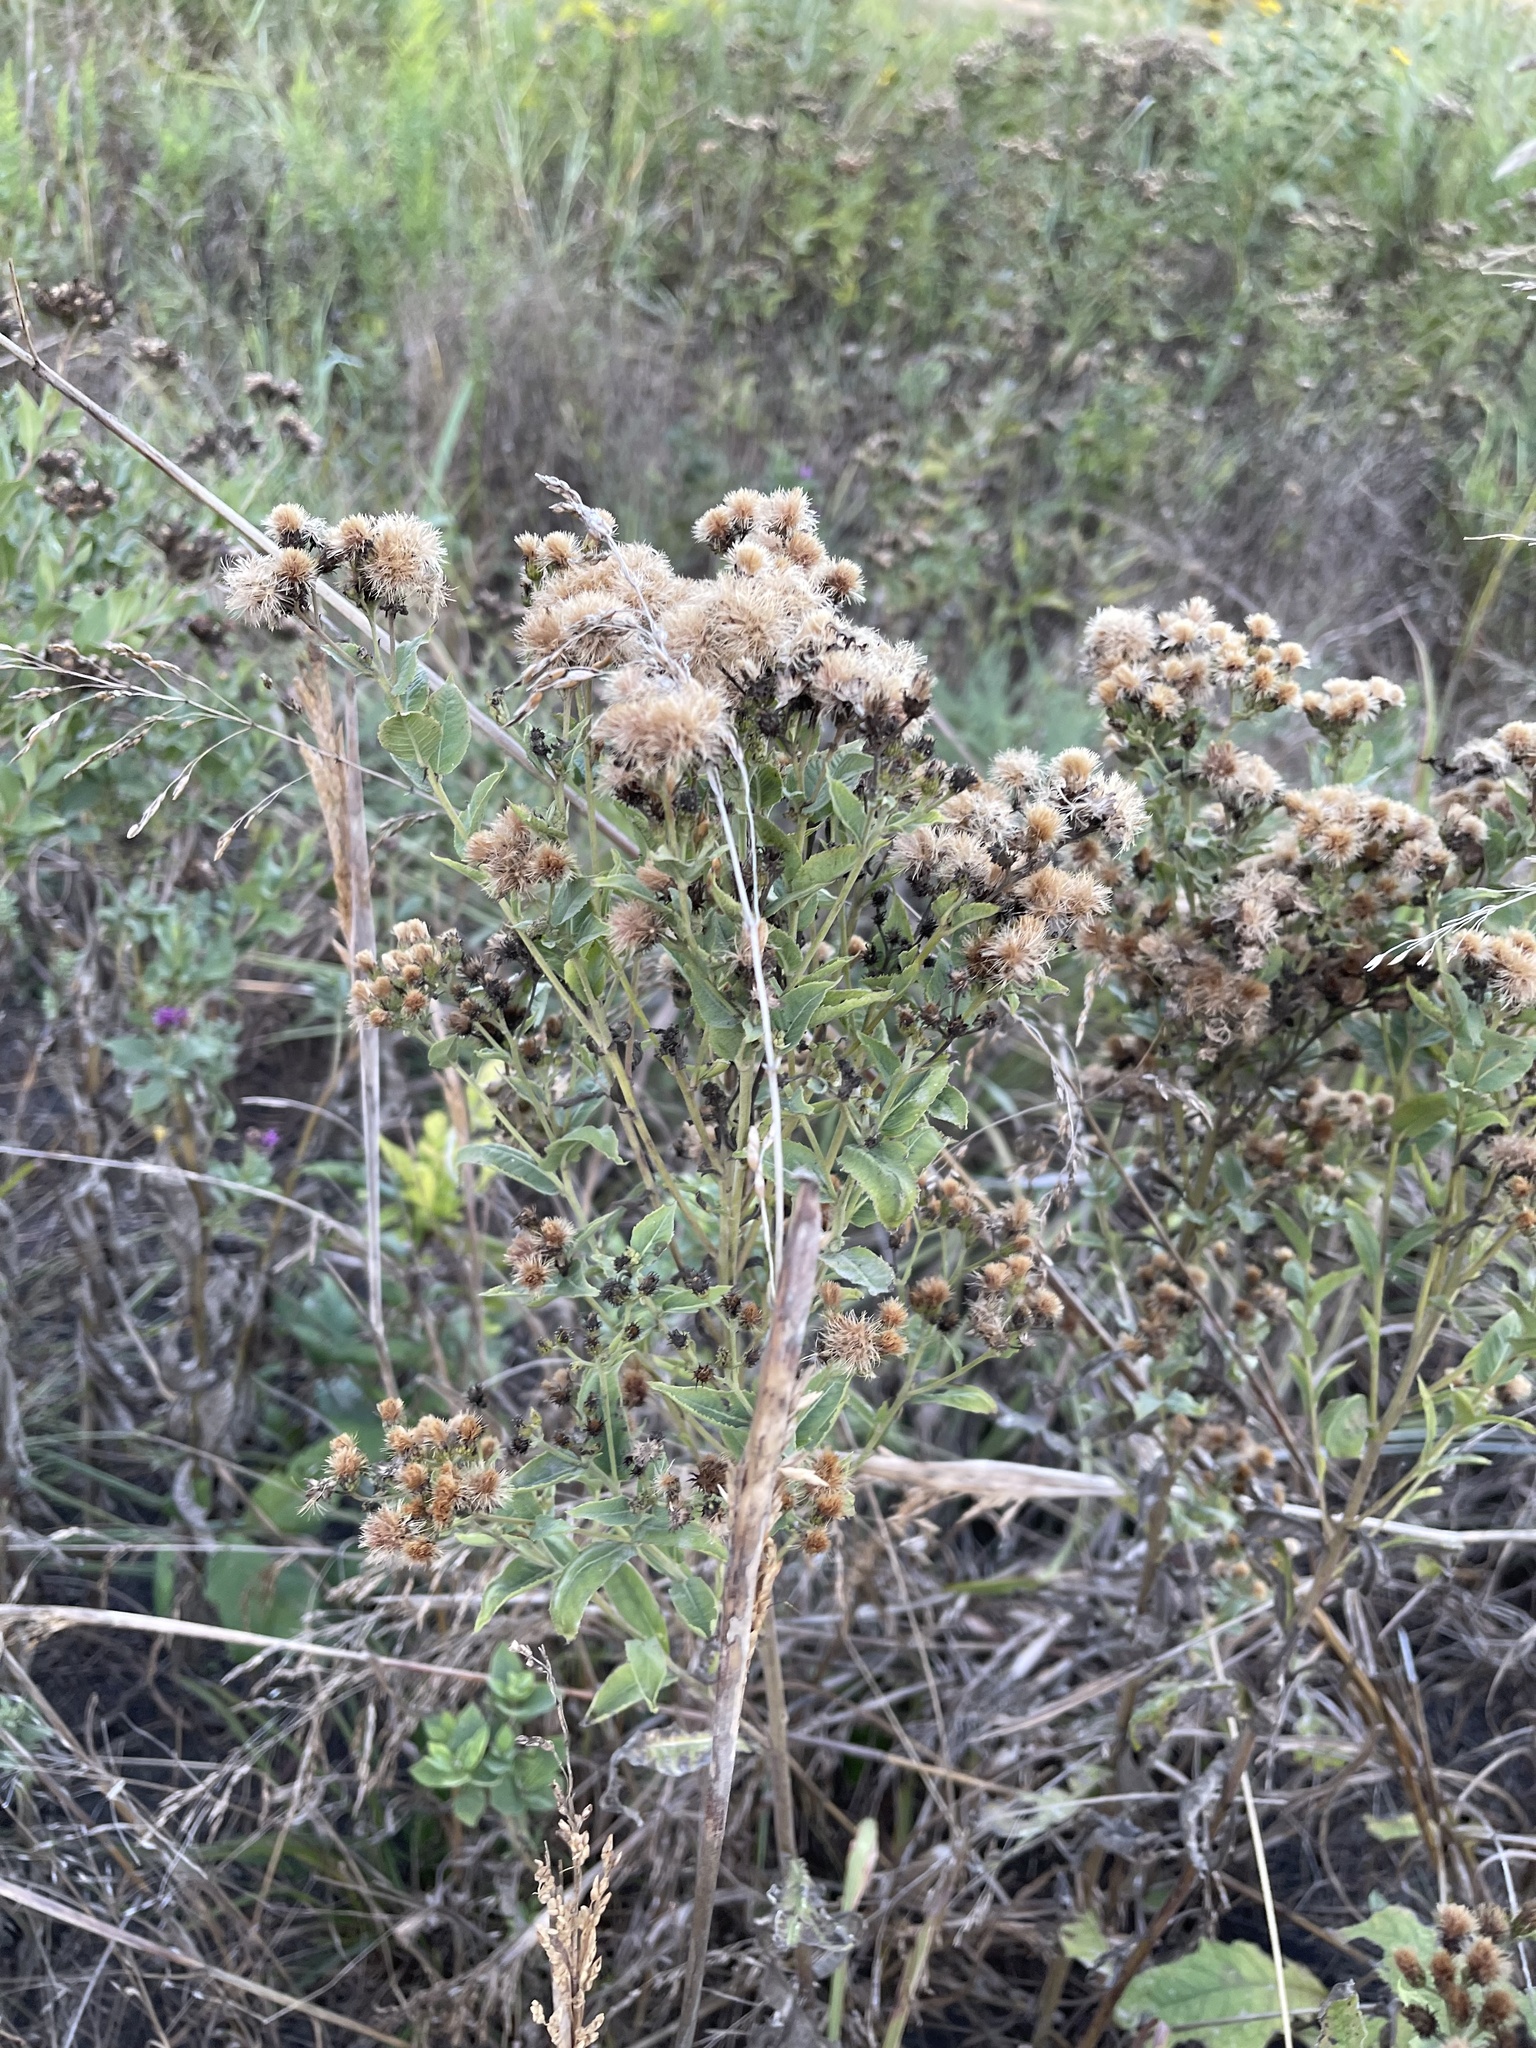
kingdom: Plantae
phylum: Tracheophyta
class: Magnoliopsida
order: Asterales
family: Asteraceae
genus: Vernonia
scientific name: Vernonia baldwinii
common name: Western ironweed
